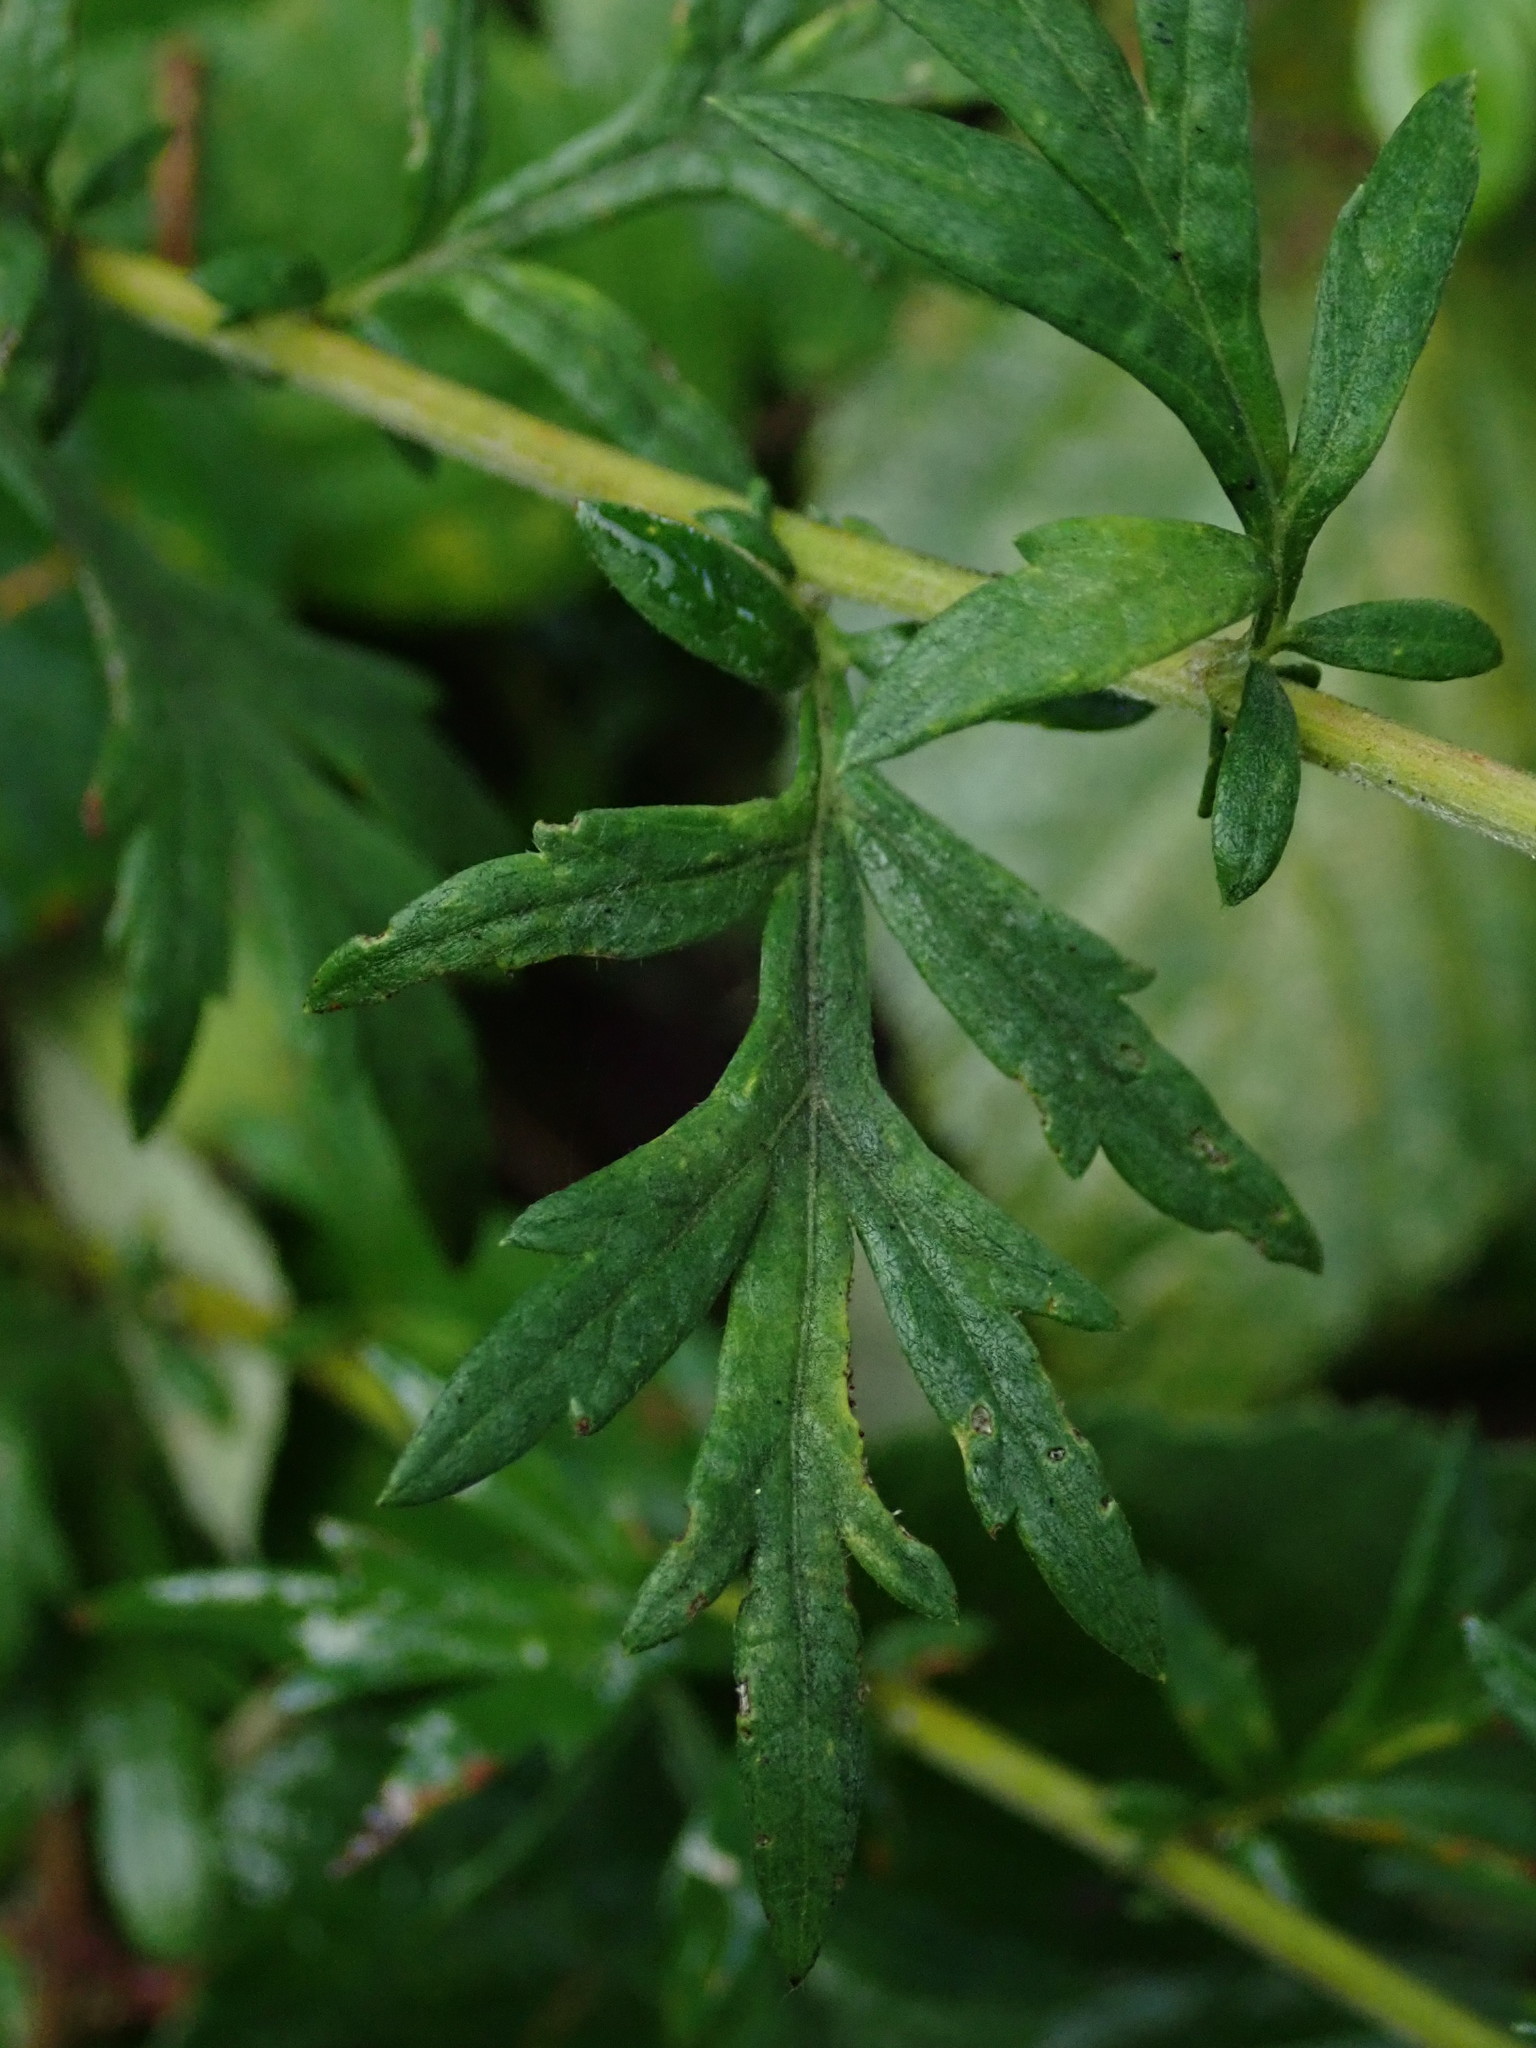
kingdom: Plantae
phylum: Tracheophyta
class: Magnoliopsida
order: Asterales
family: Asteraceae
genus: Artemisia
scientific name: Artemisia vulgaris
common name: Mugwort
